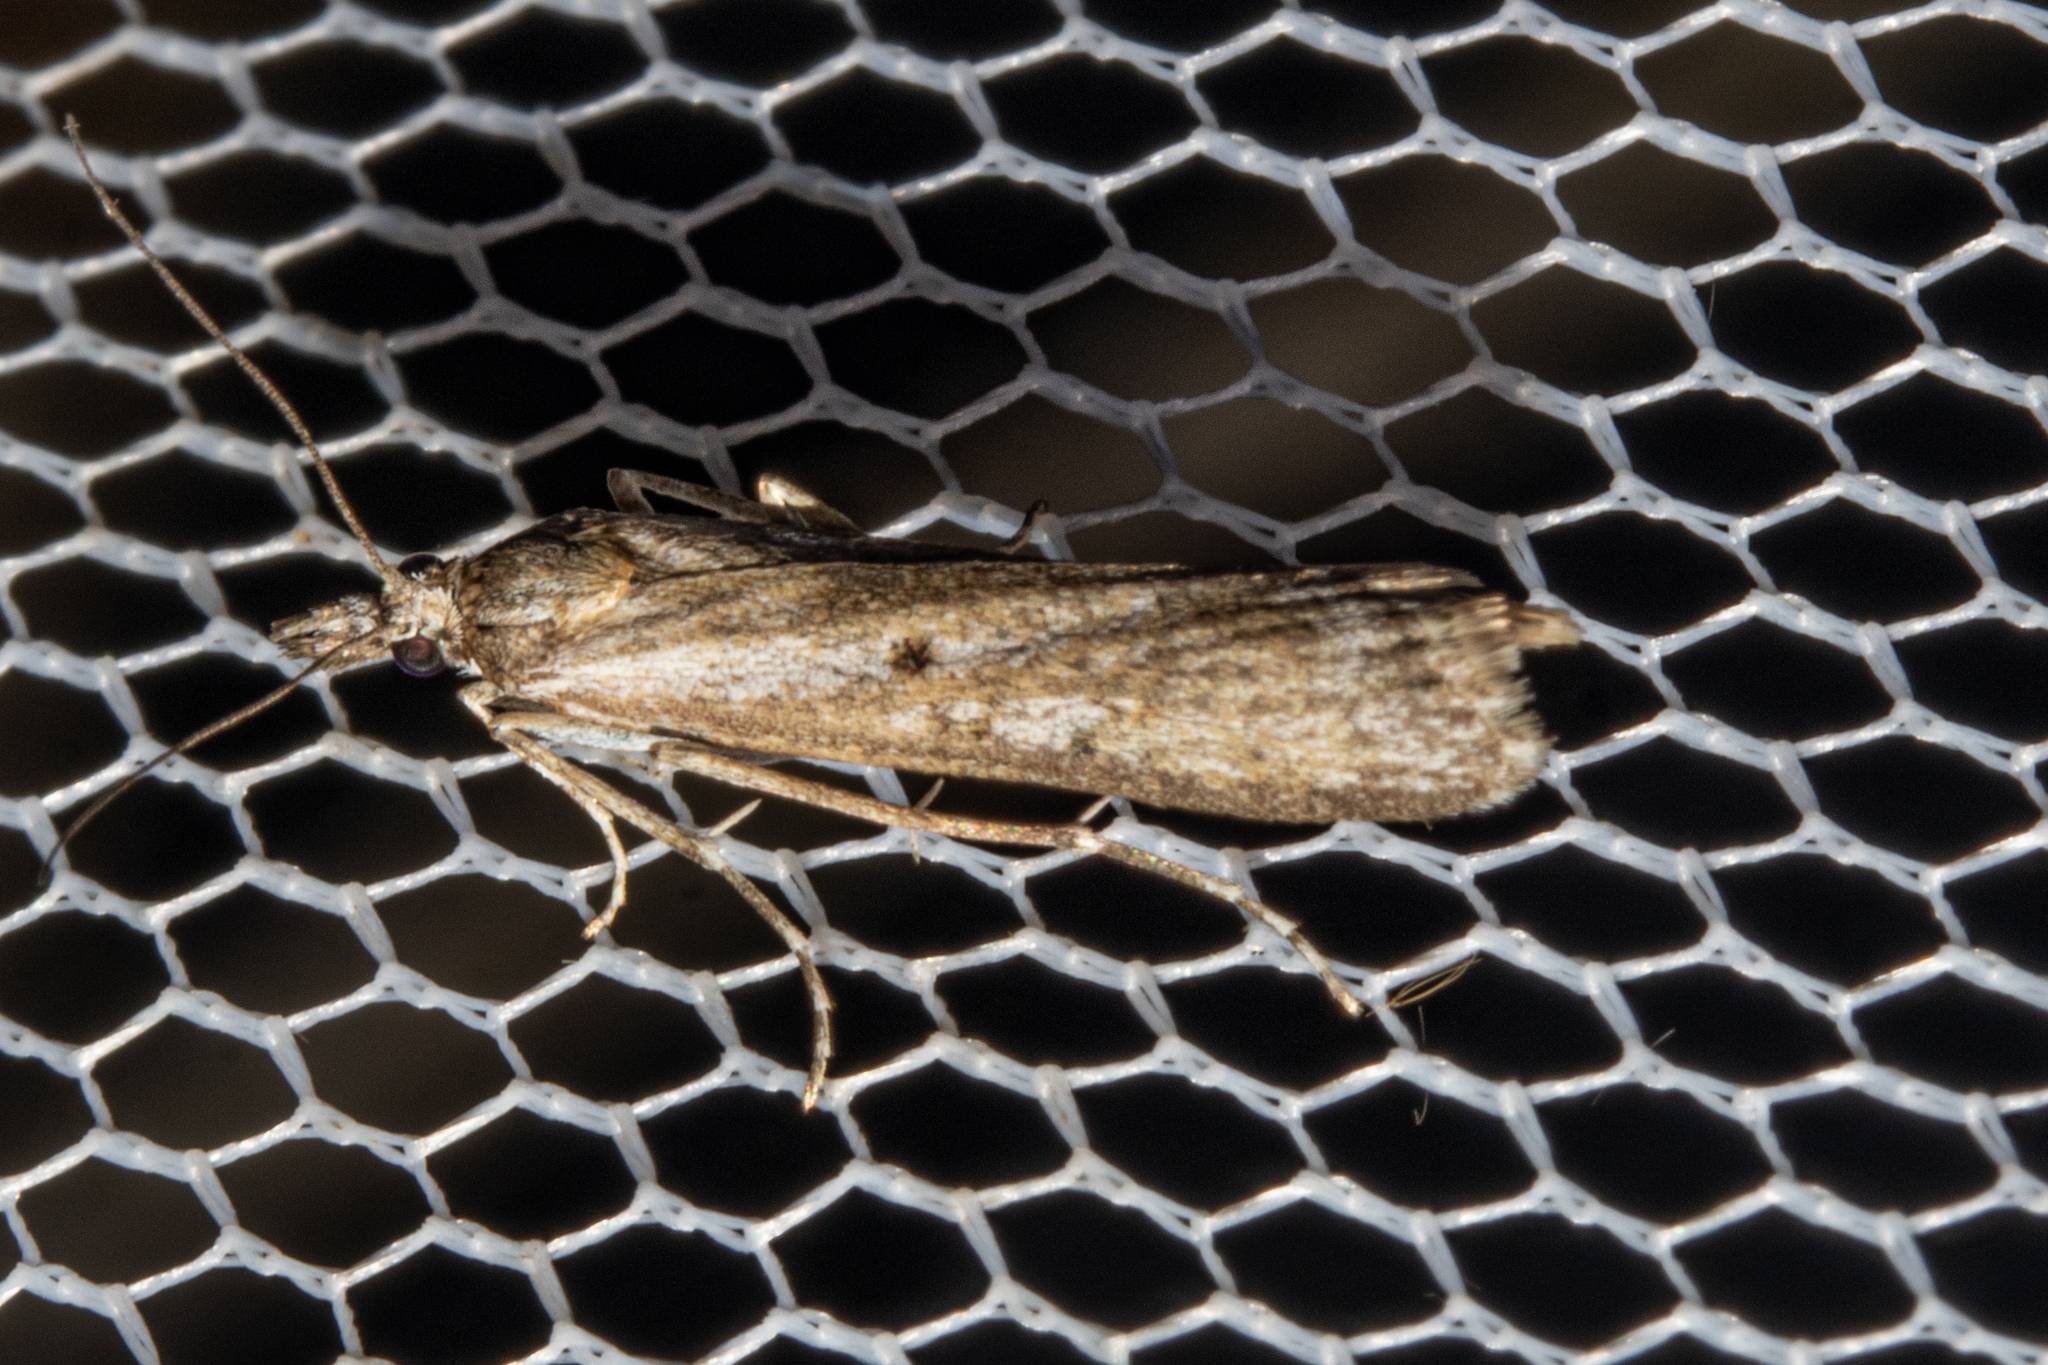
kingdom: Animalia
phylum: Arthropoda
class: Insecta
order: Lepidoptera
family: Crambidae
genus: Eudonia
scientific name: Eudonia leptalea
